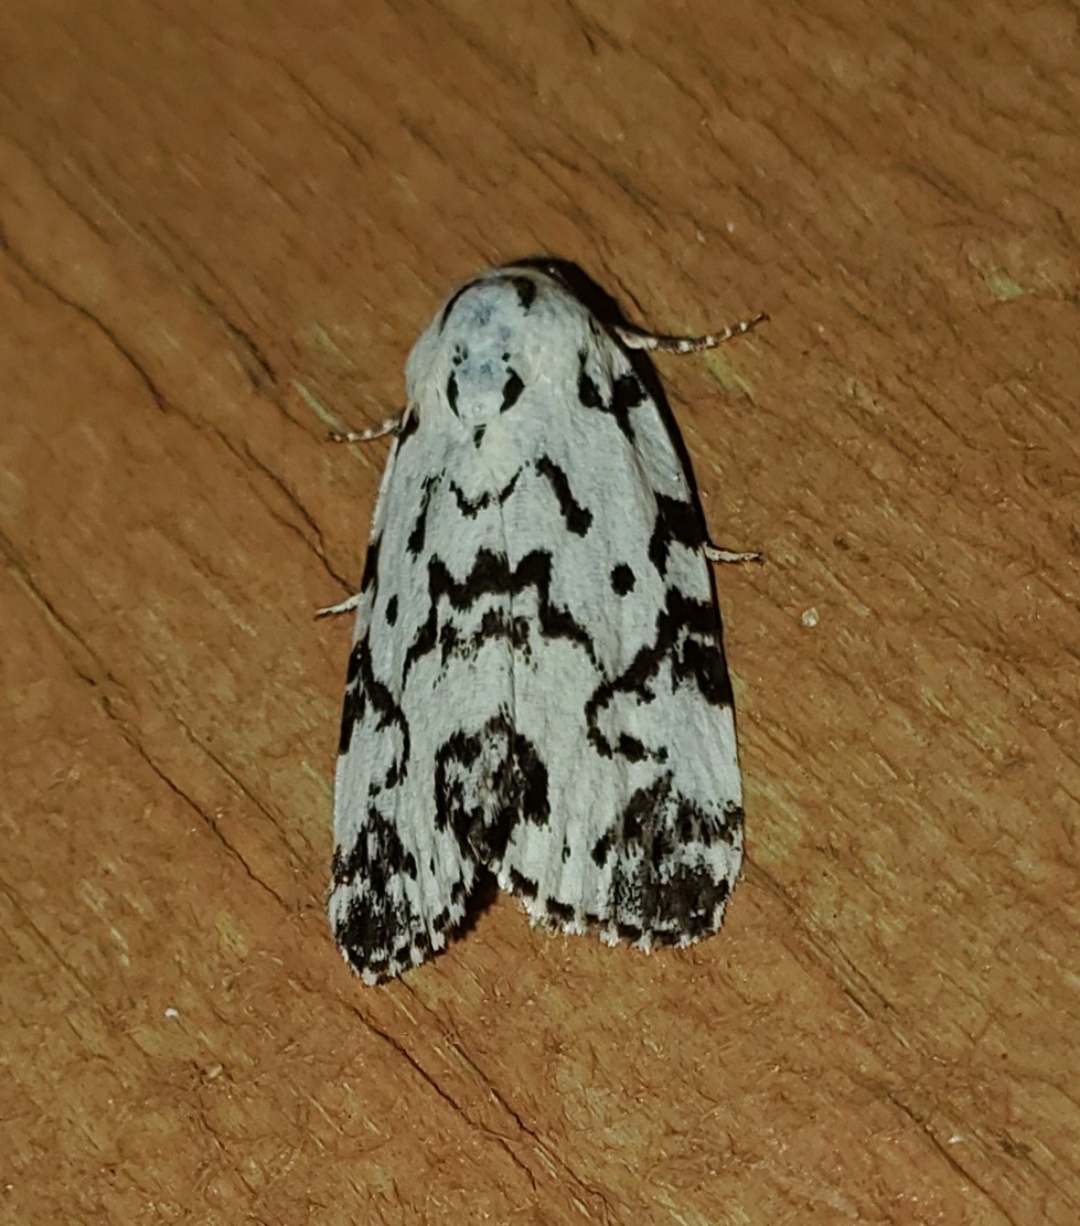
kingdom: Animalia
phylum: Arthropoda
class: Insecta
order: Lepidoptera
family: Noctuidae
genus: Polygrammate
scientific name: Polygrammate hebraeicum
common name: Hebrew moth
